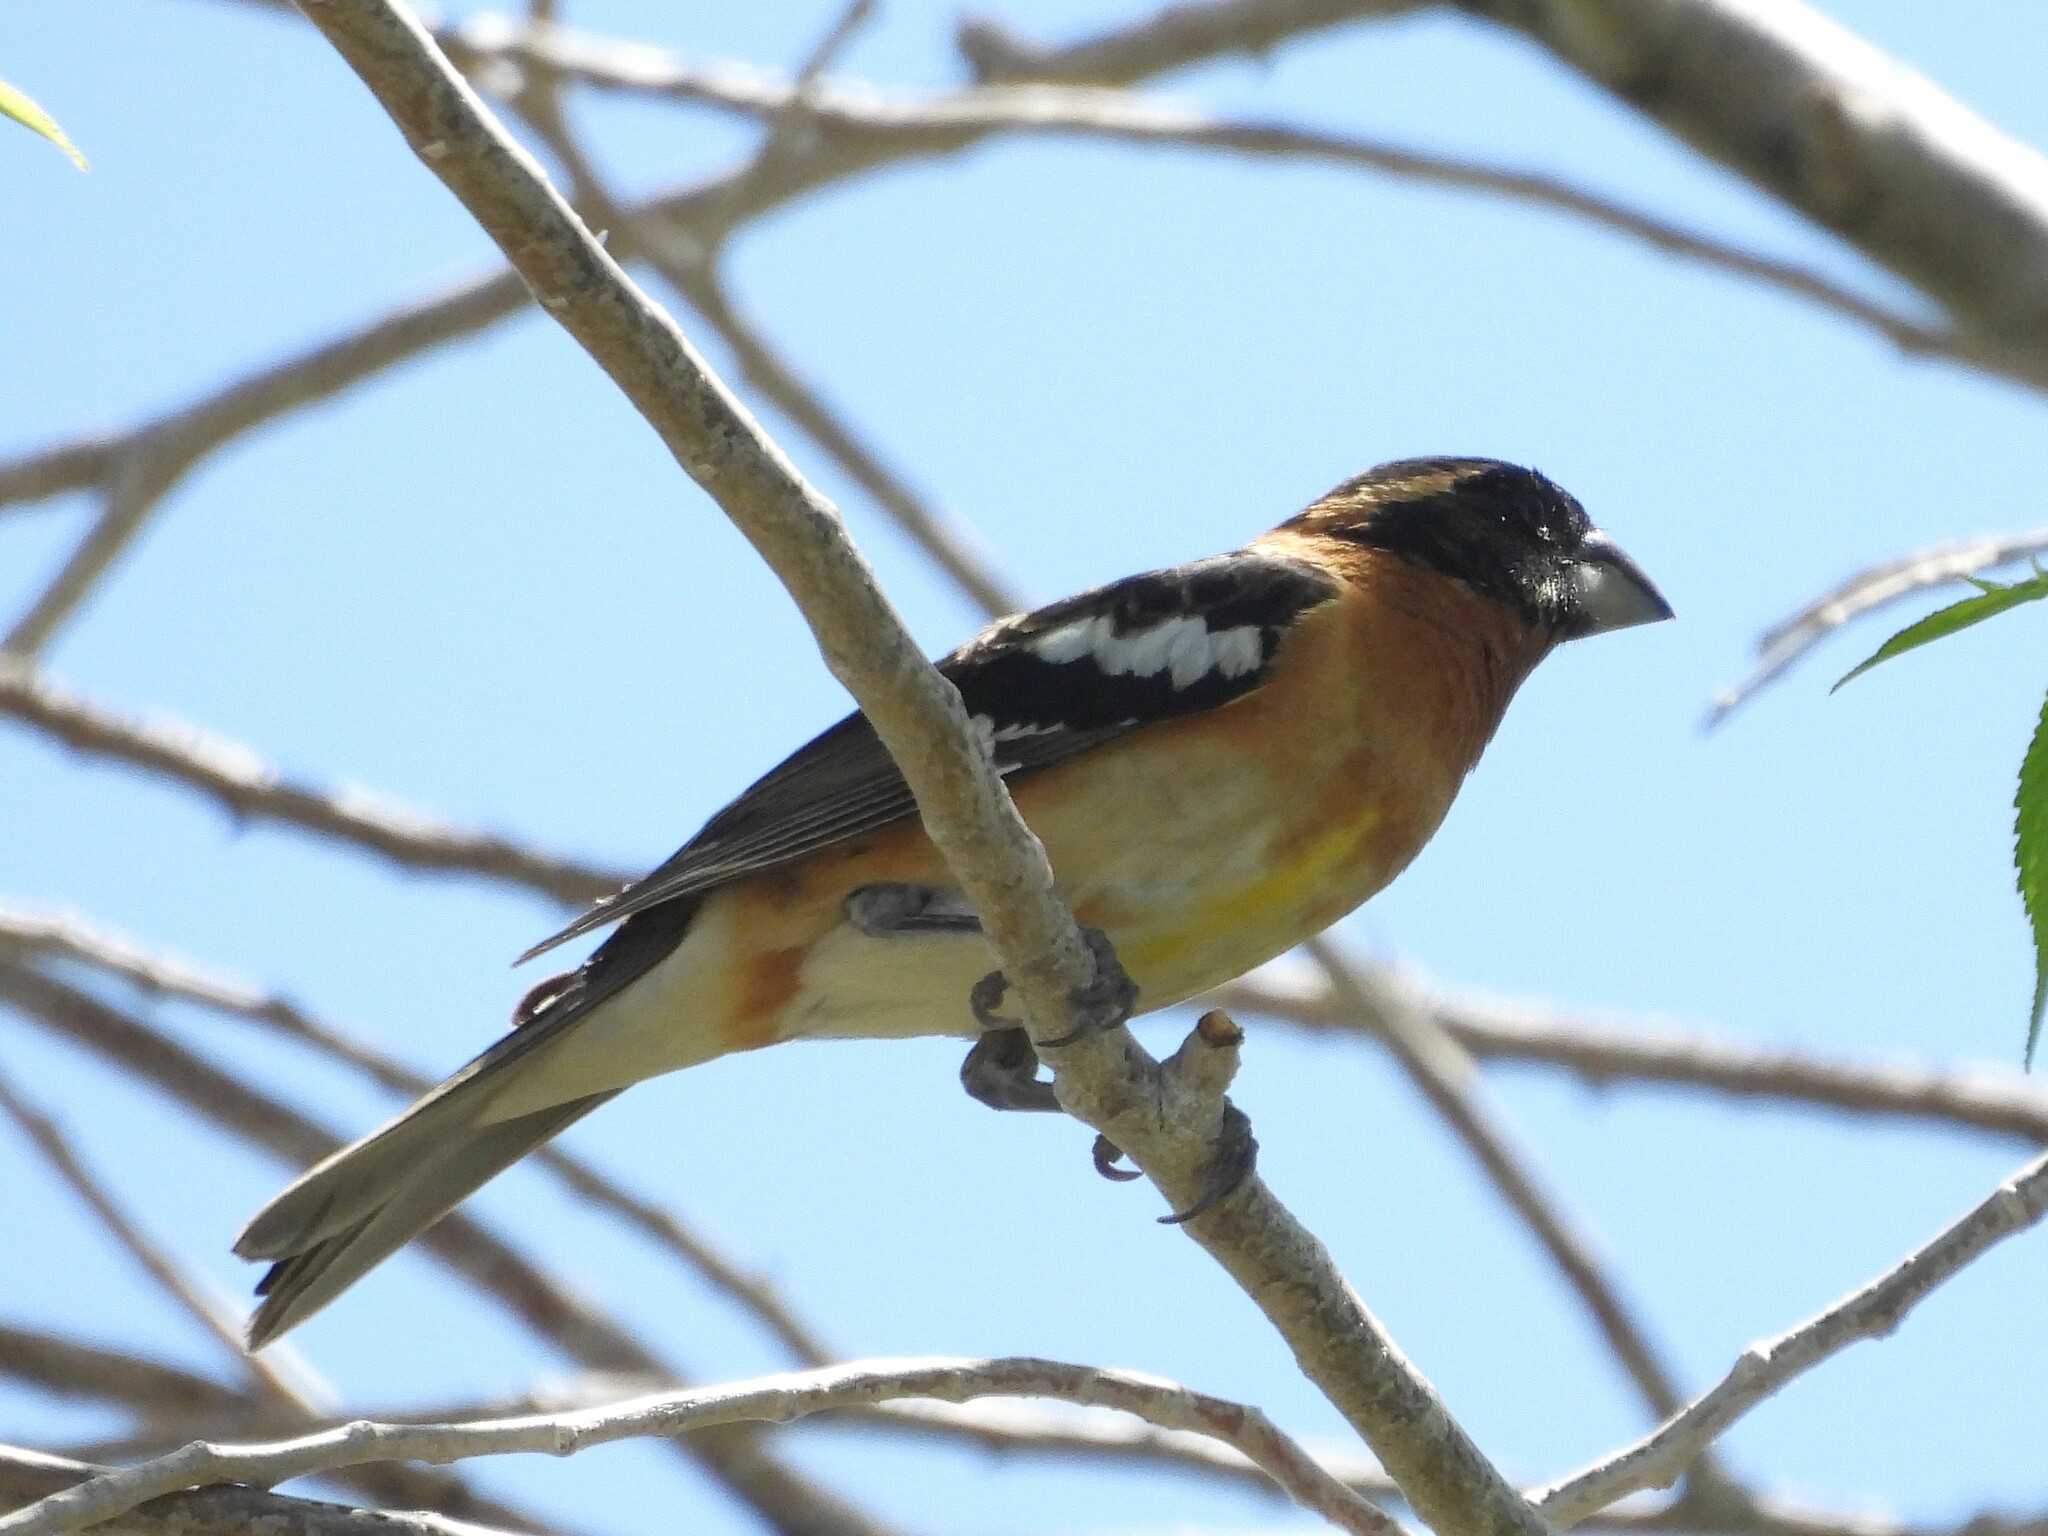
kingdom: Animalia
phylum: Chordata
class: Aves
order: Passeriformes
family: Cardinalidae
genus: Pheucticus
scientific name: Pheucticus melanocephalus
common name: Black-headed grosbeak
